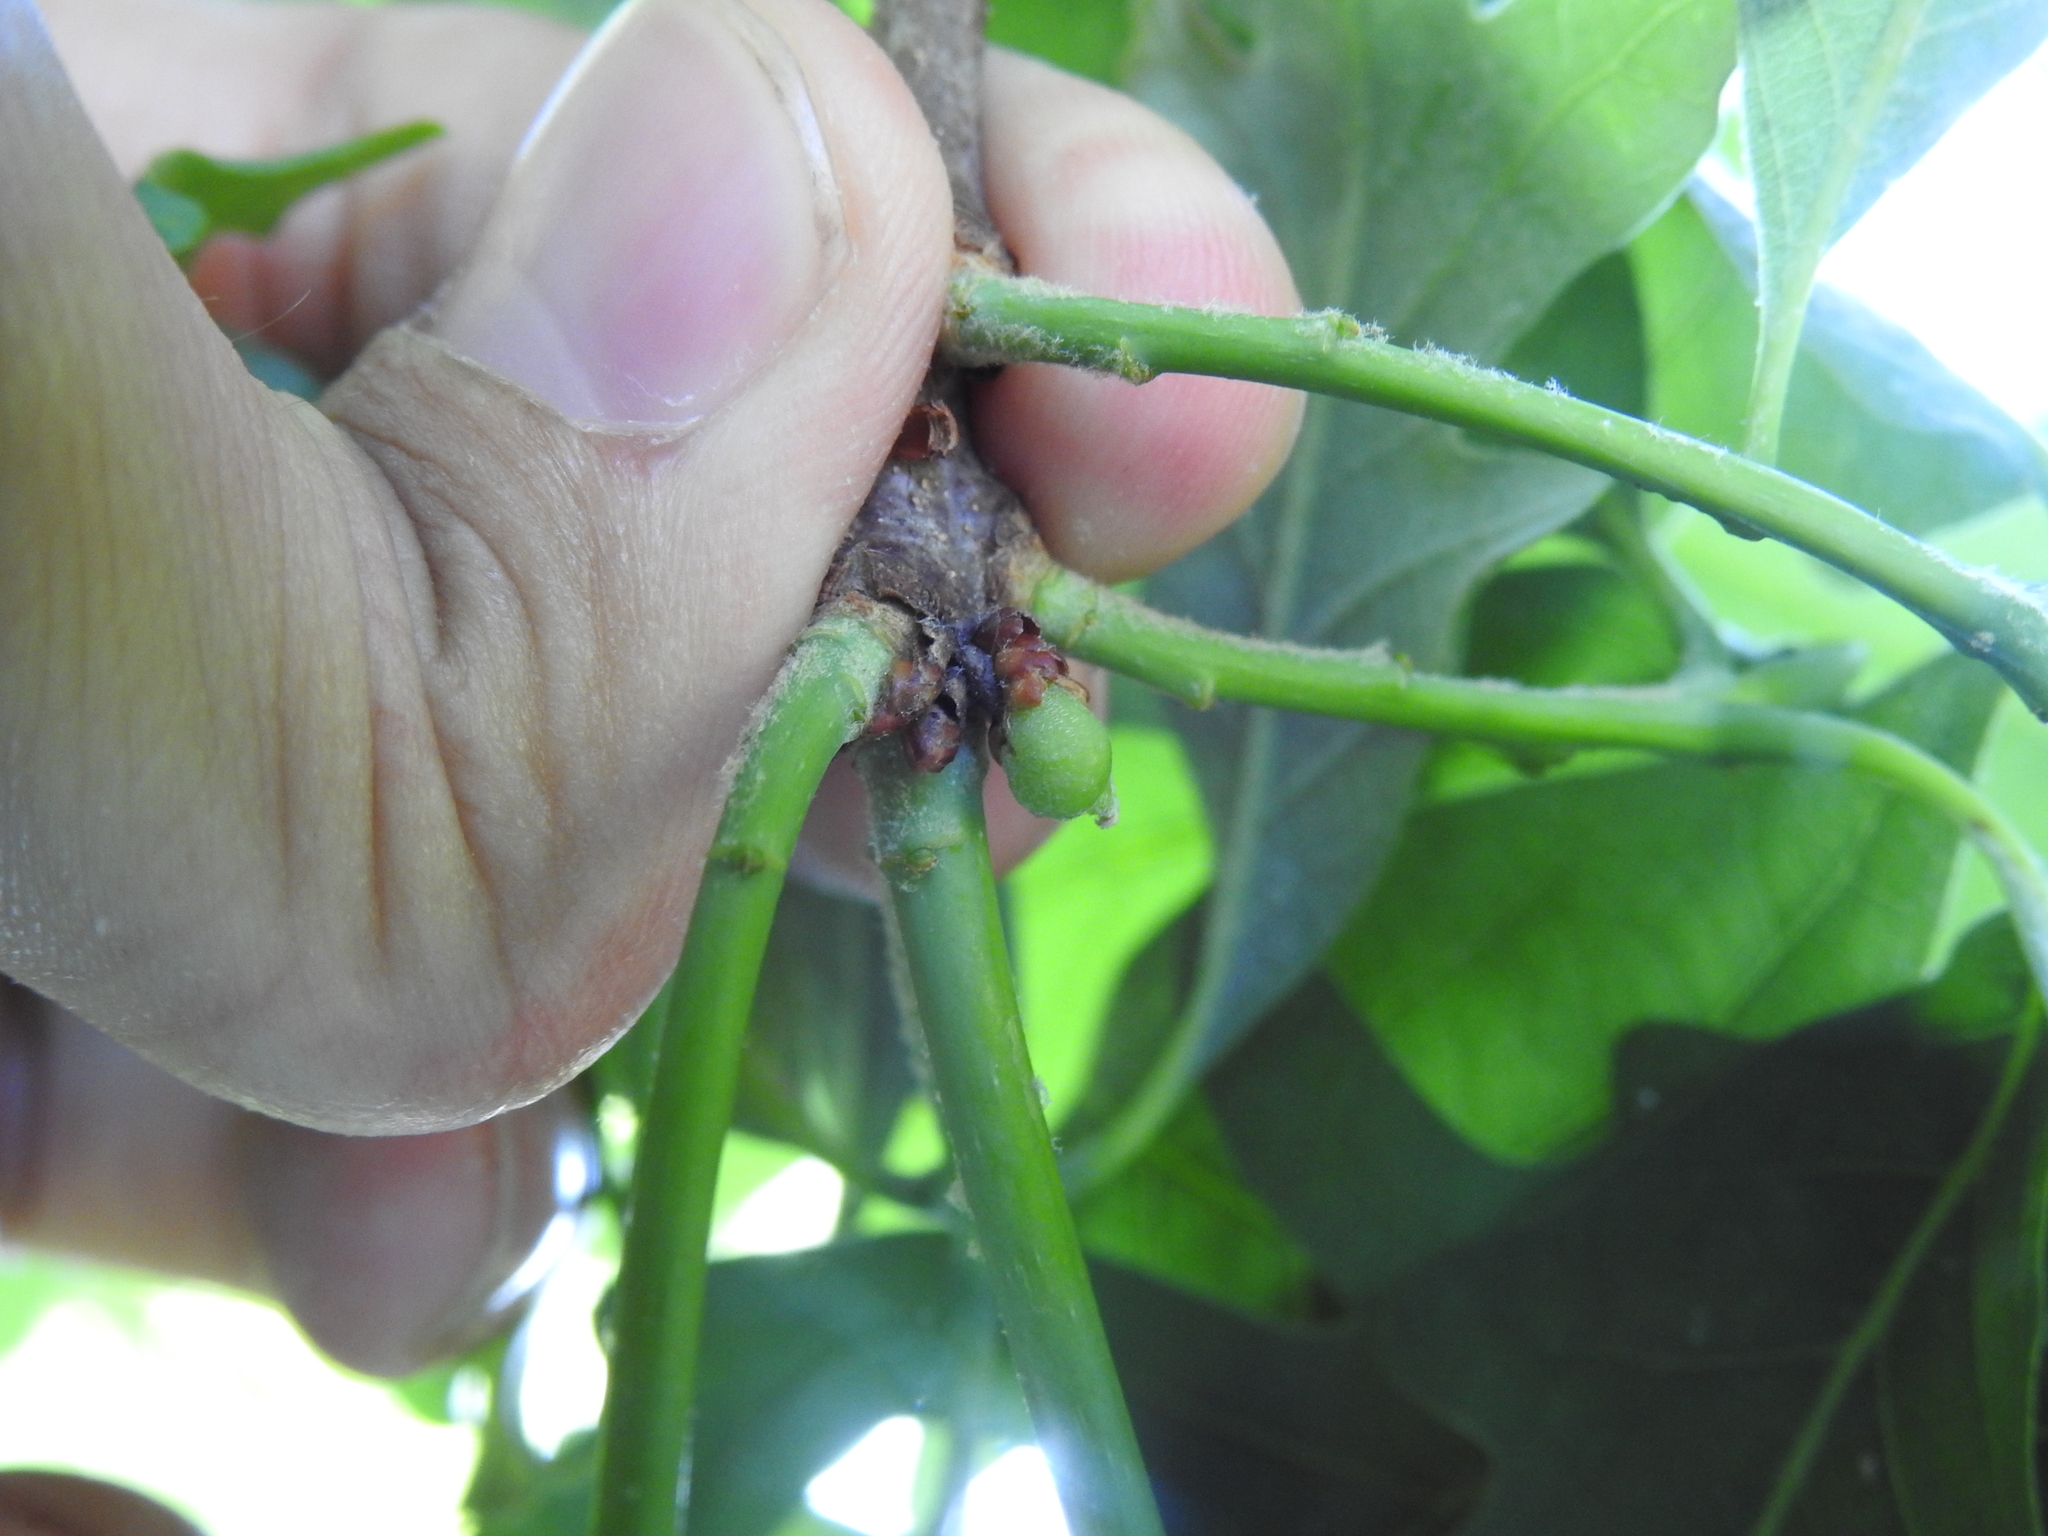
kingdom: Animalia
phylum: Arthropoda
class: Insecta
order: Hymenoptera
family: Cynipidae
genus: Andricus
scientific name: Andricus
